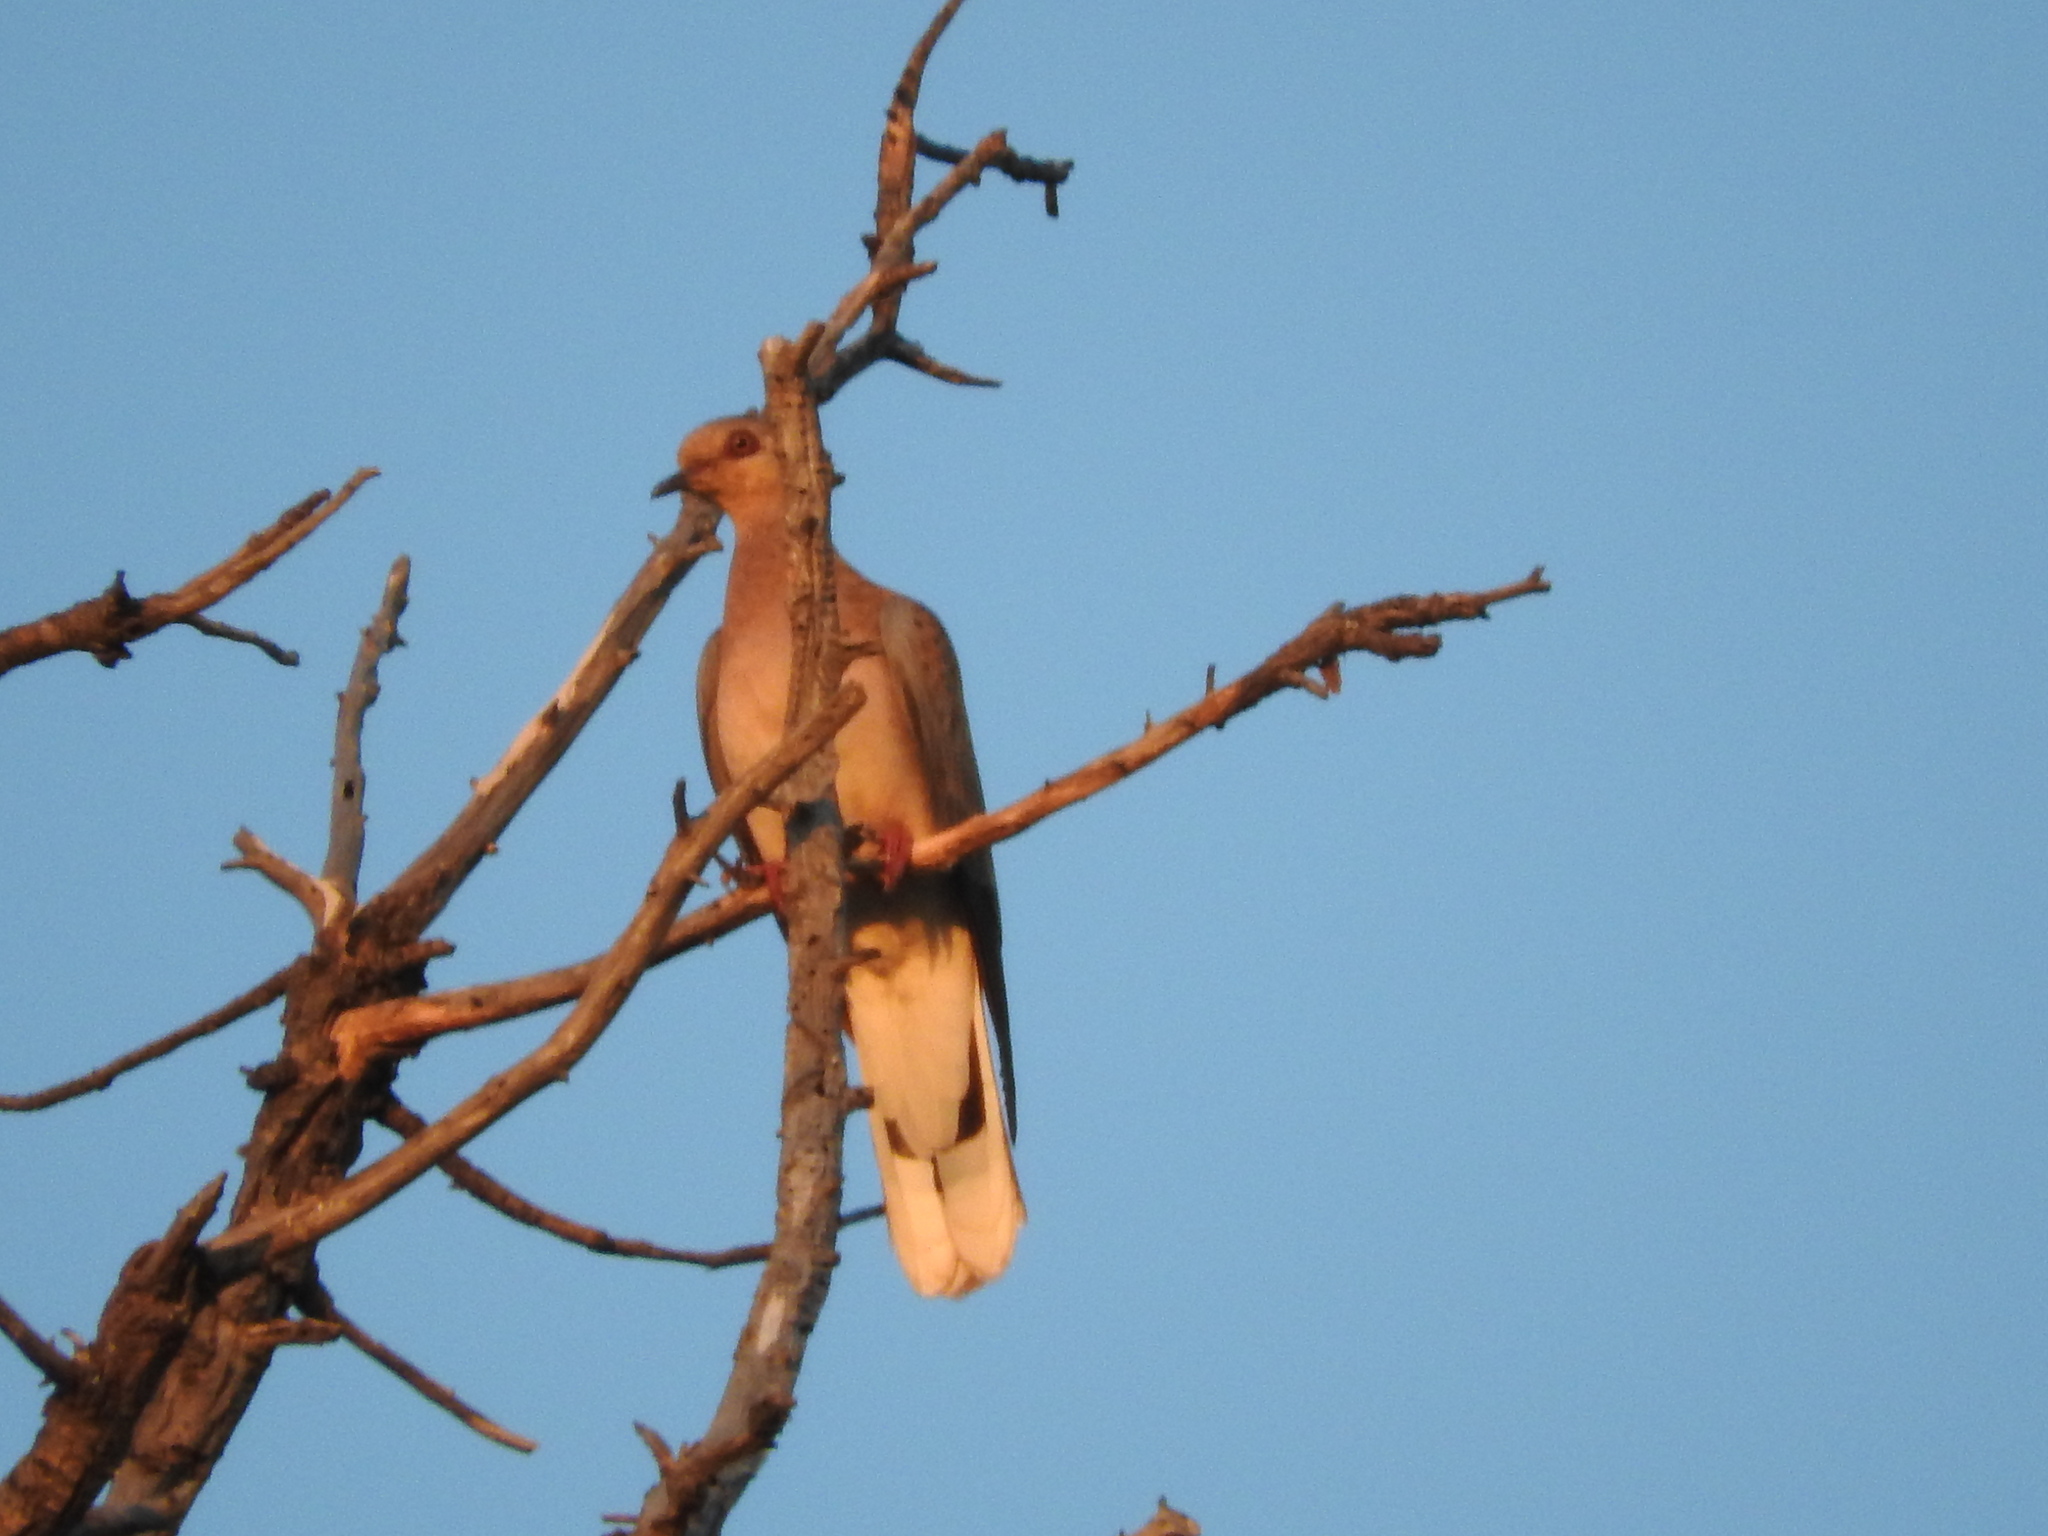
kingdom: Animalia
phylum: Chordata
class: Aves
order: Columbiformes
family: Columbidae
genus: Streptopelia
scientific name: Streptopelia turtur
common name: European turtle dove
